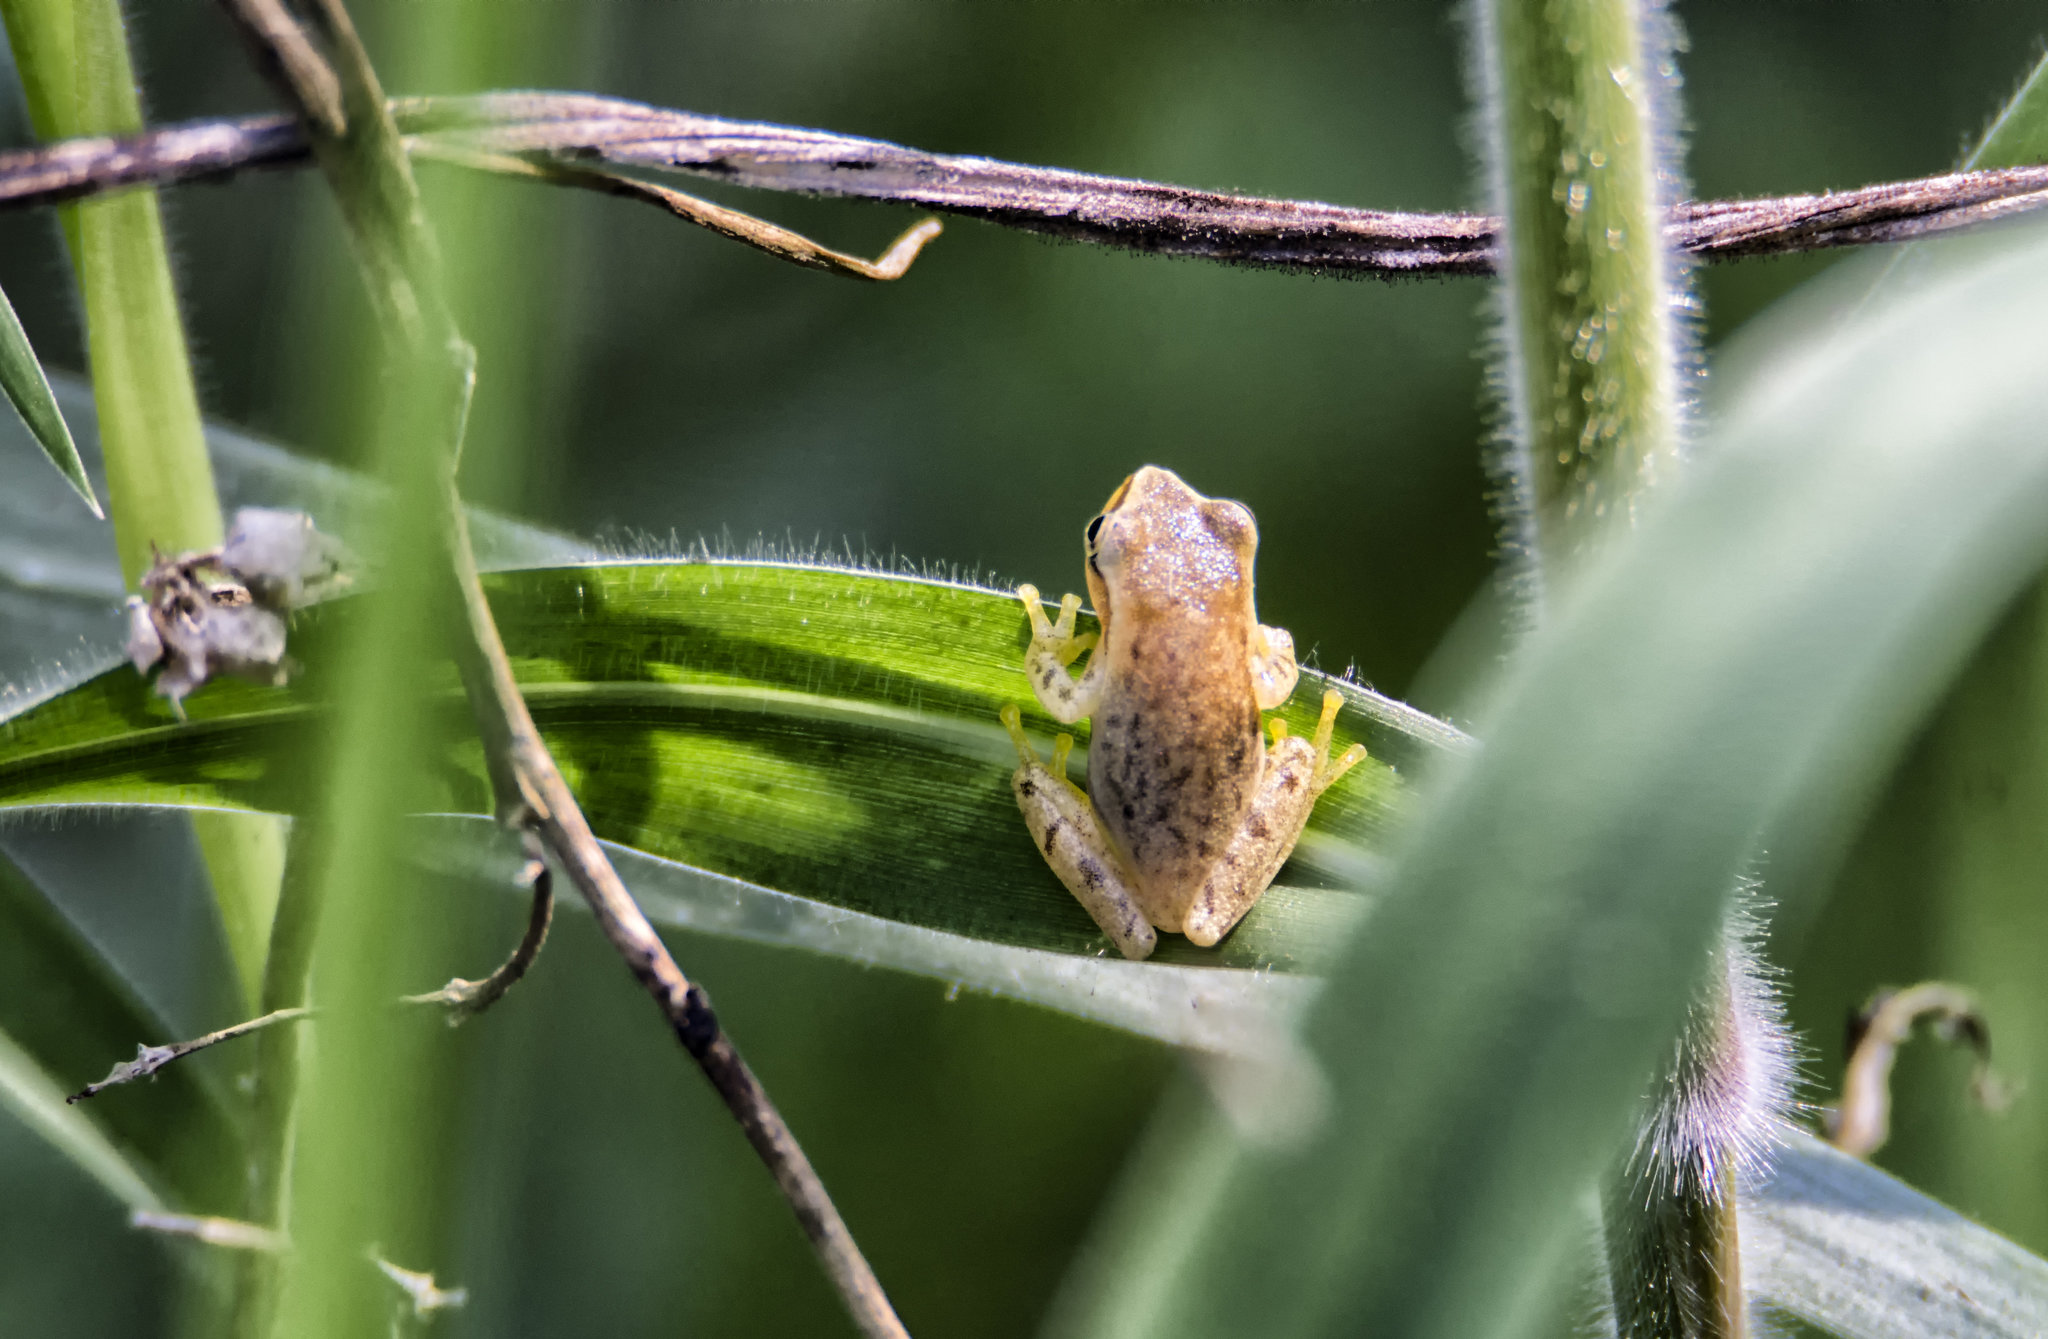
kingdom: Animalia
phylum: Chordata
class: Amphibia
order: Anura
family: Hylidae
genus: Tlalocohyla
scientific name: Tlalocohyla smithii
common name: Dwarf mexican treefrog
